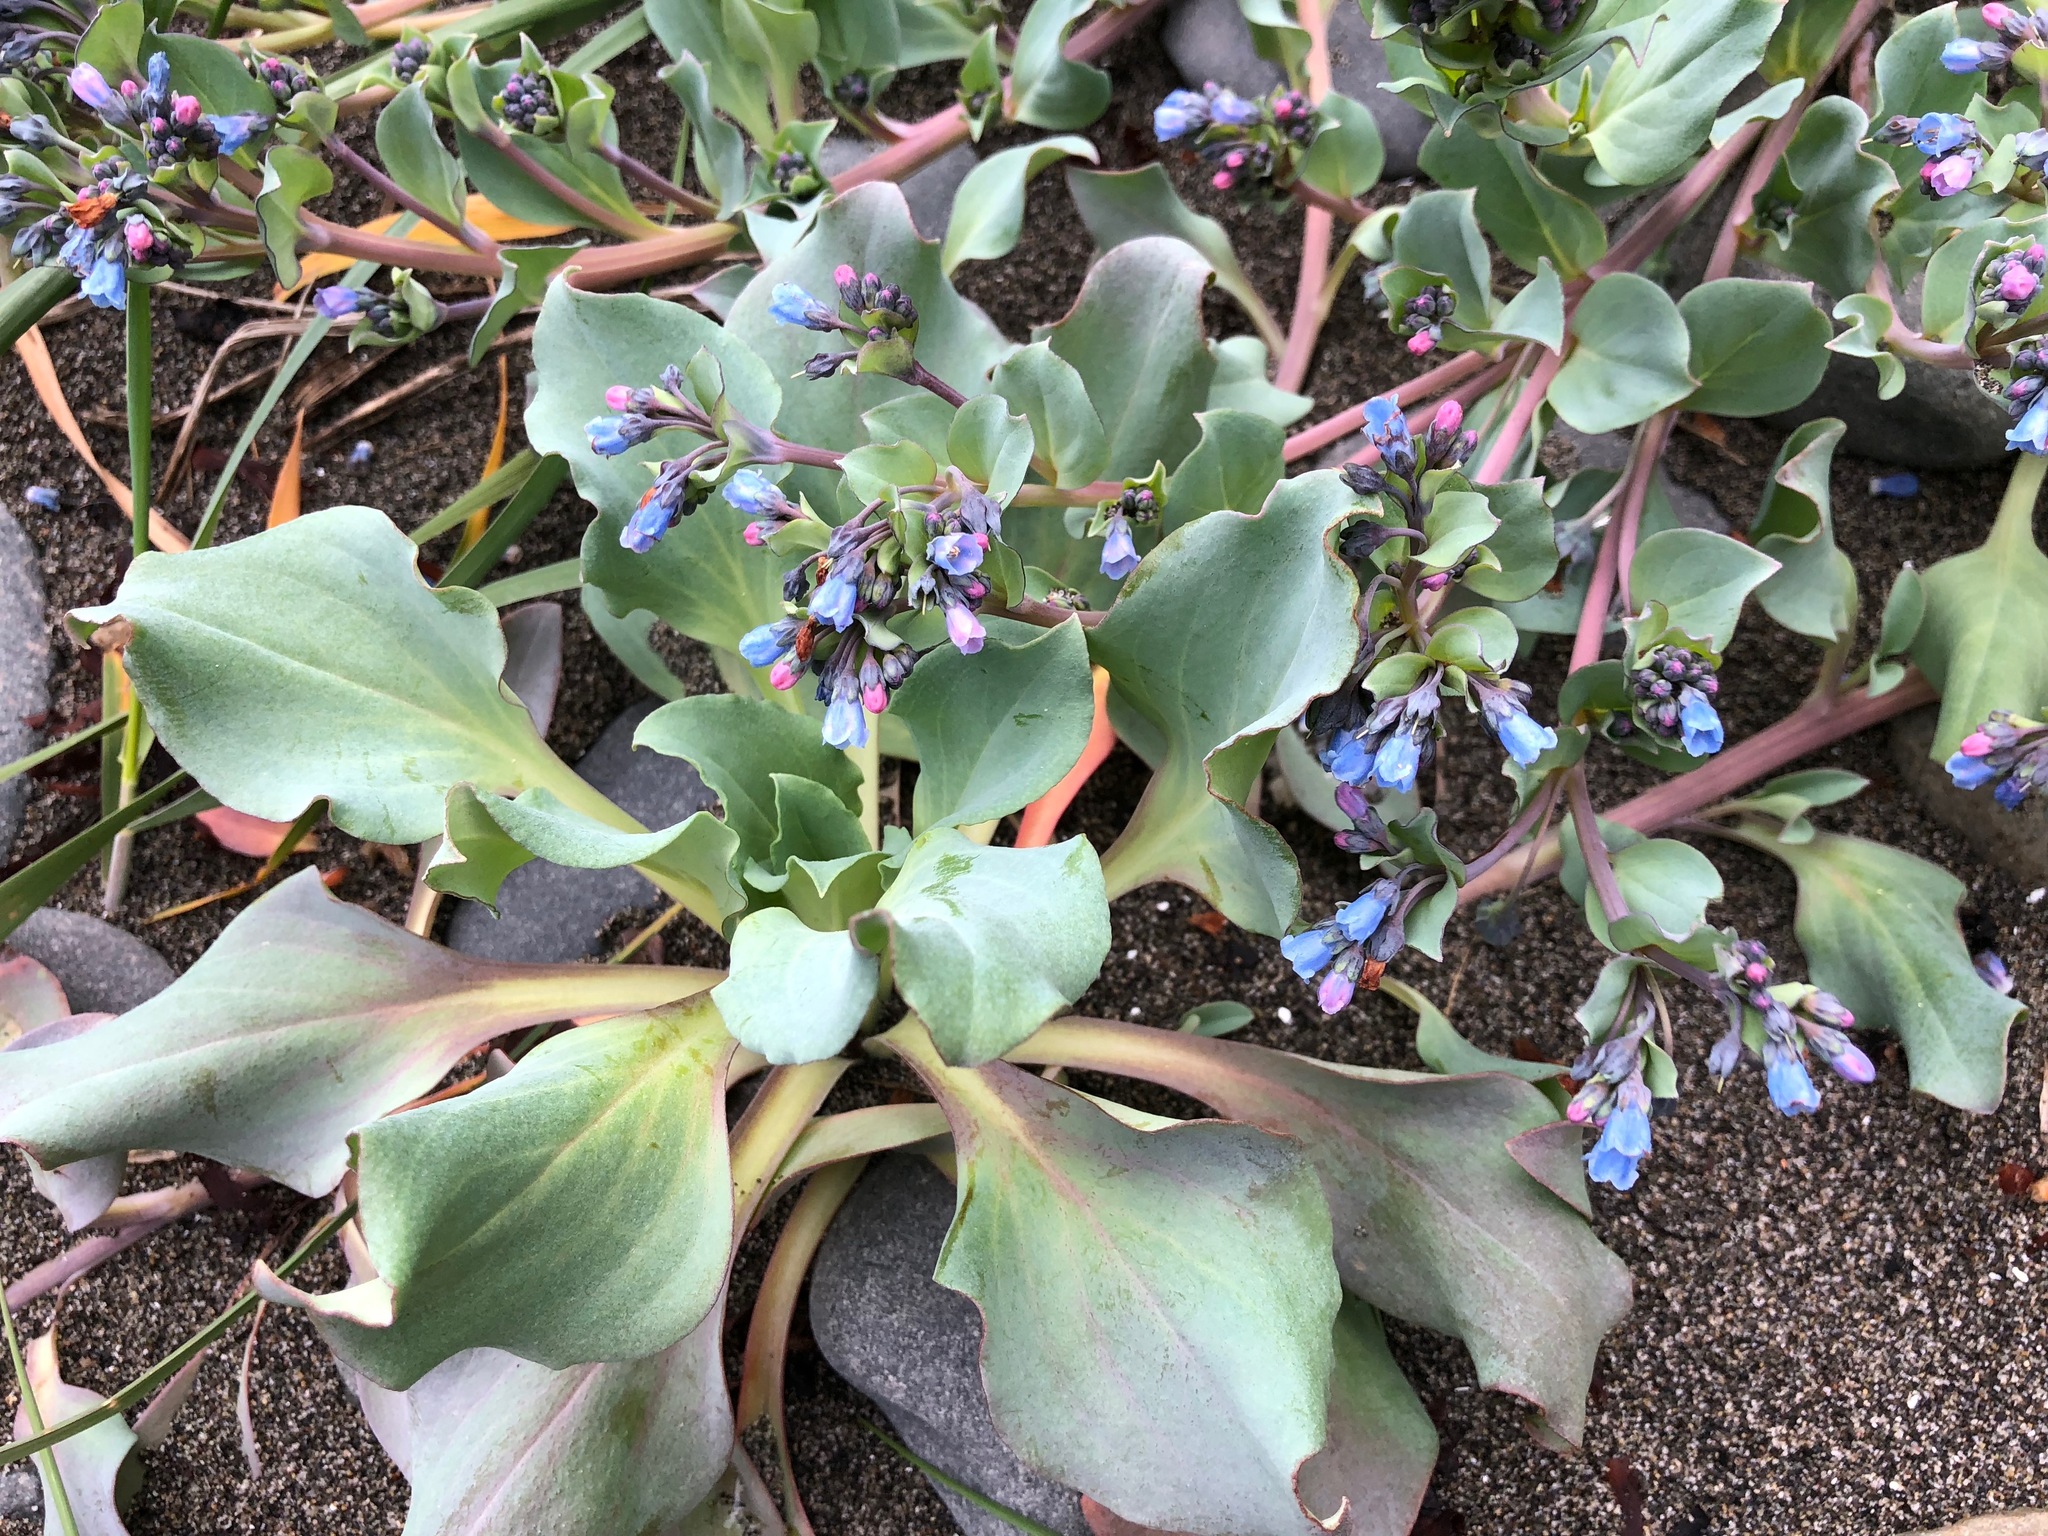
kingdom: Plantae
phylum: Tracheophyta
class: Magnoliopsida
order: Boraginales
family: Boraginaceae
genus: Mertensia
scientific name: Mertensia maritima
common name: Oysterplant
